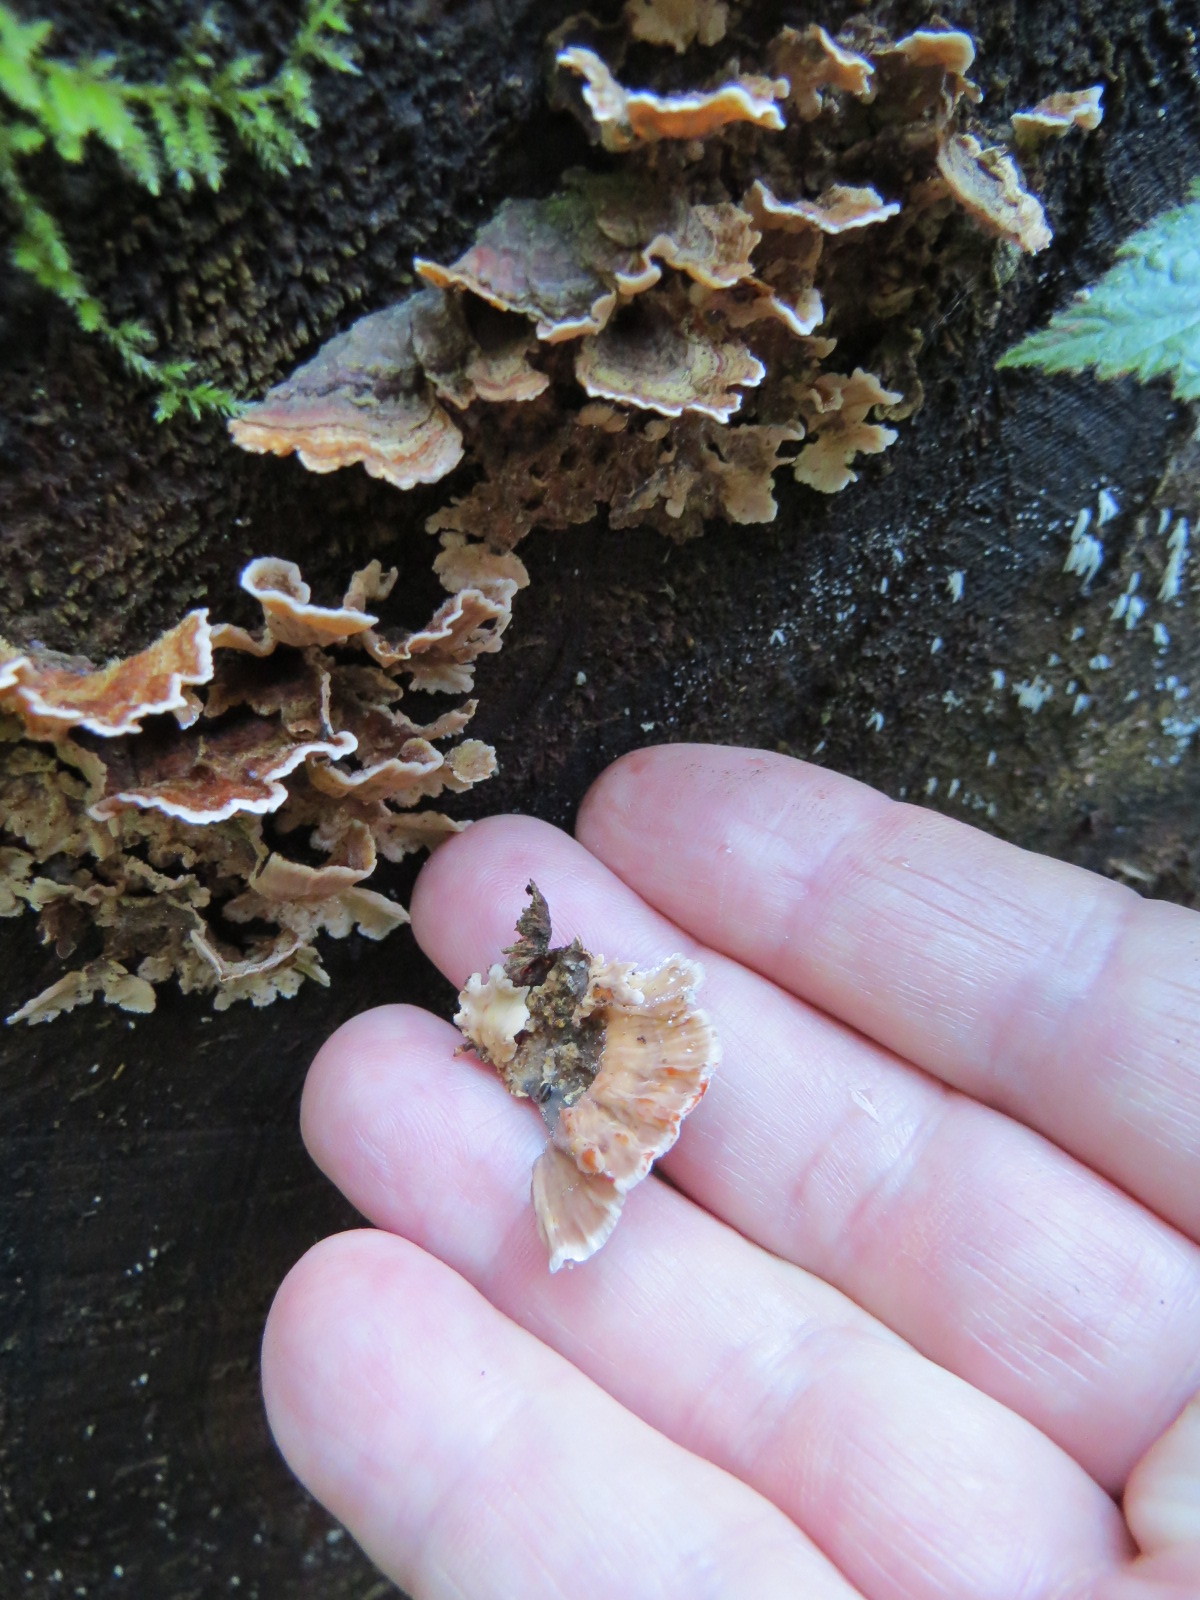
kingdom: Fungi
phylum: Basidiomycota
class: Agaricomycetes
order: Russulales
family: Stereaceae
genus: Stereum
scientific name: Stereum sanguinolentum
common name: Bleeding conifer crust
